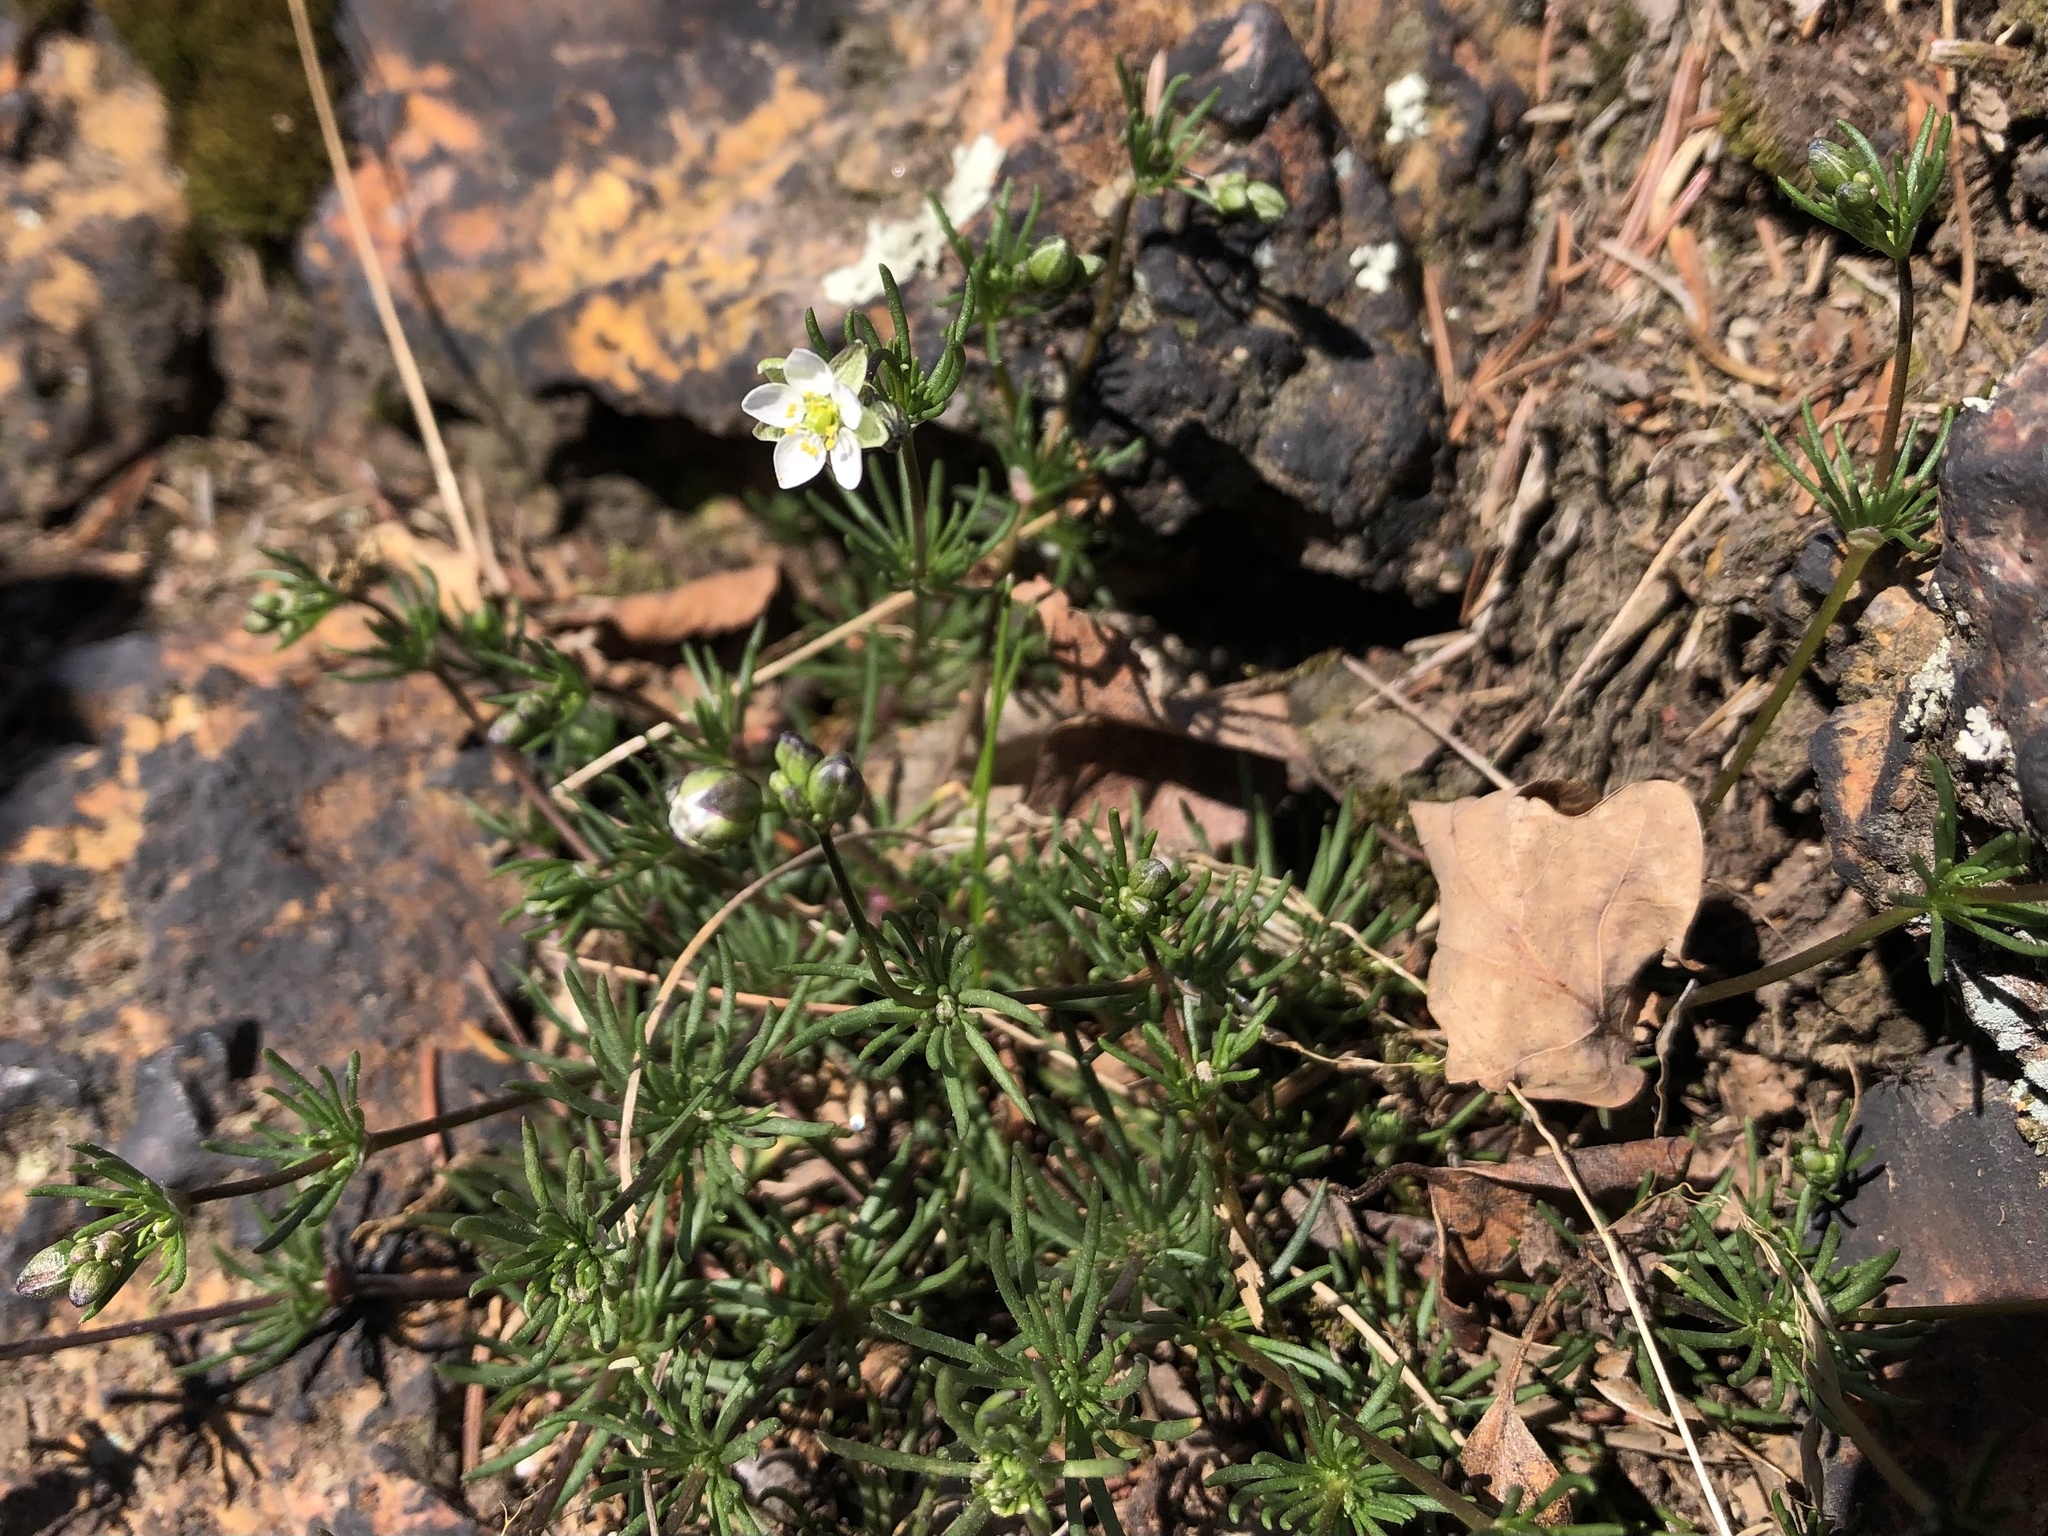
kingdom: Plantae
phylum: Tracheophyta
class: Magnoliopsida
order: Caryophyllales
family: Caryophyllaceae
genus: Spergula
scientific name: Spergula morisonii
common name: Pearlwort spurrey
